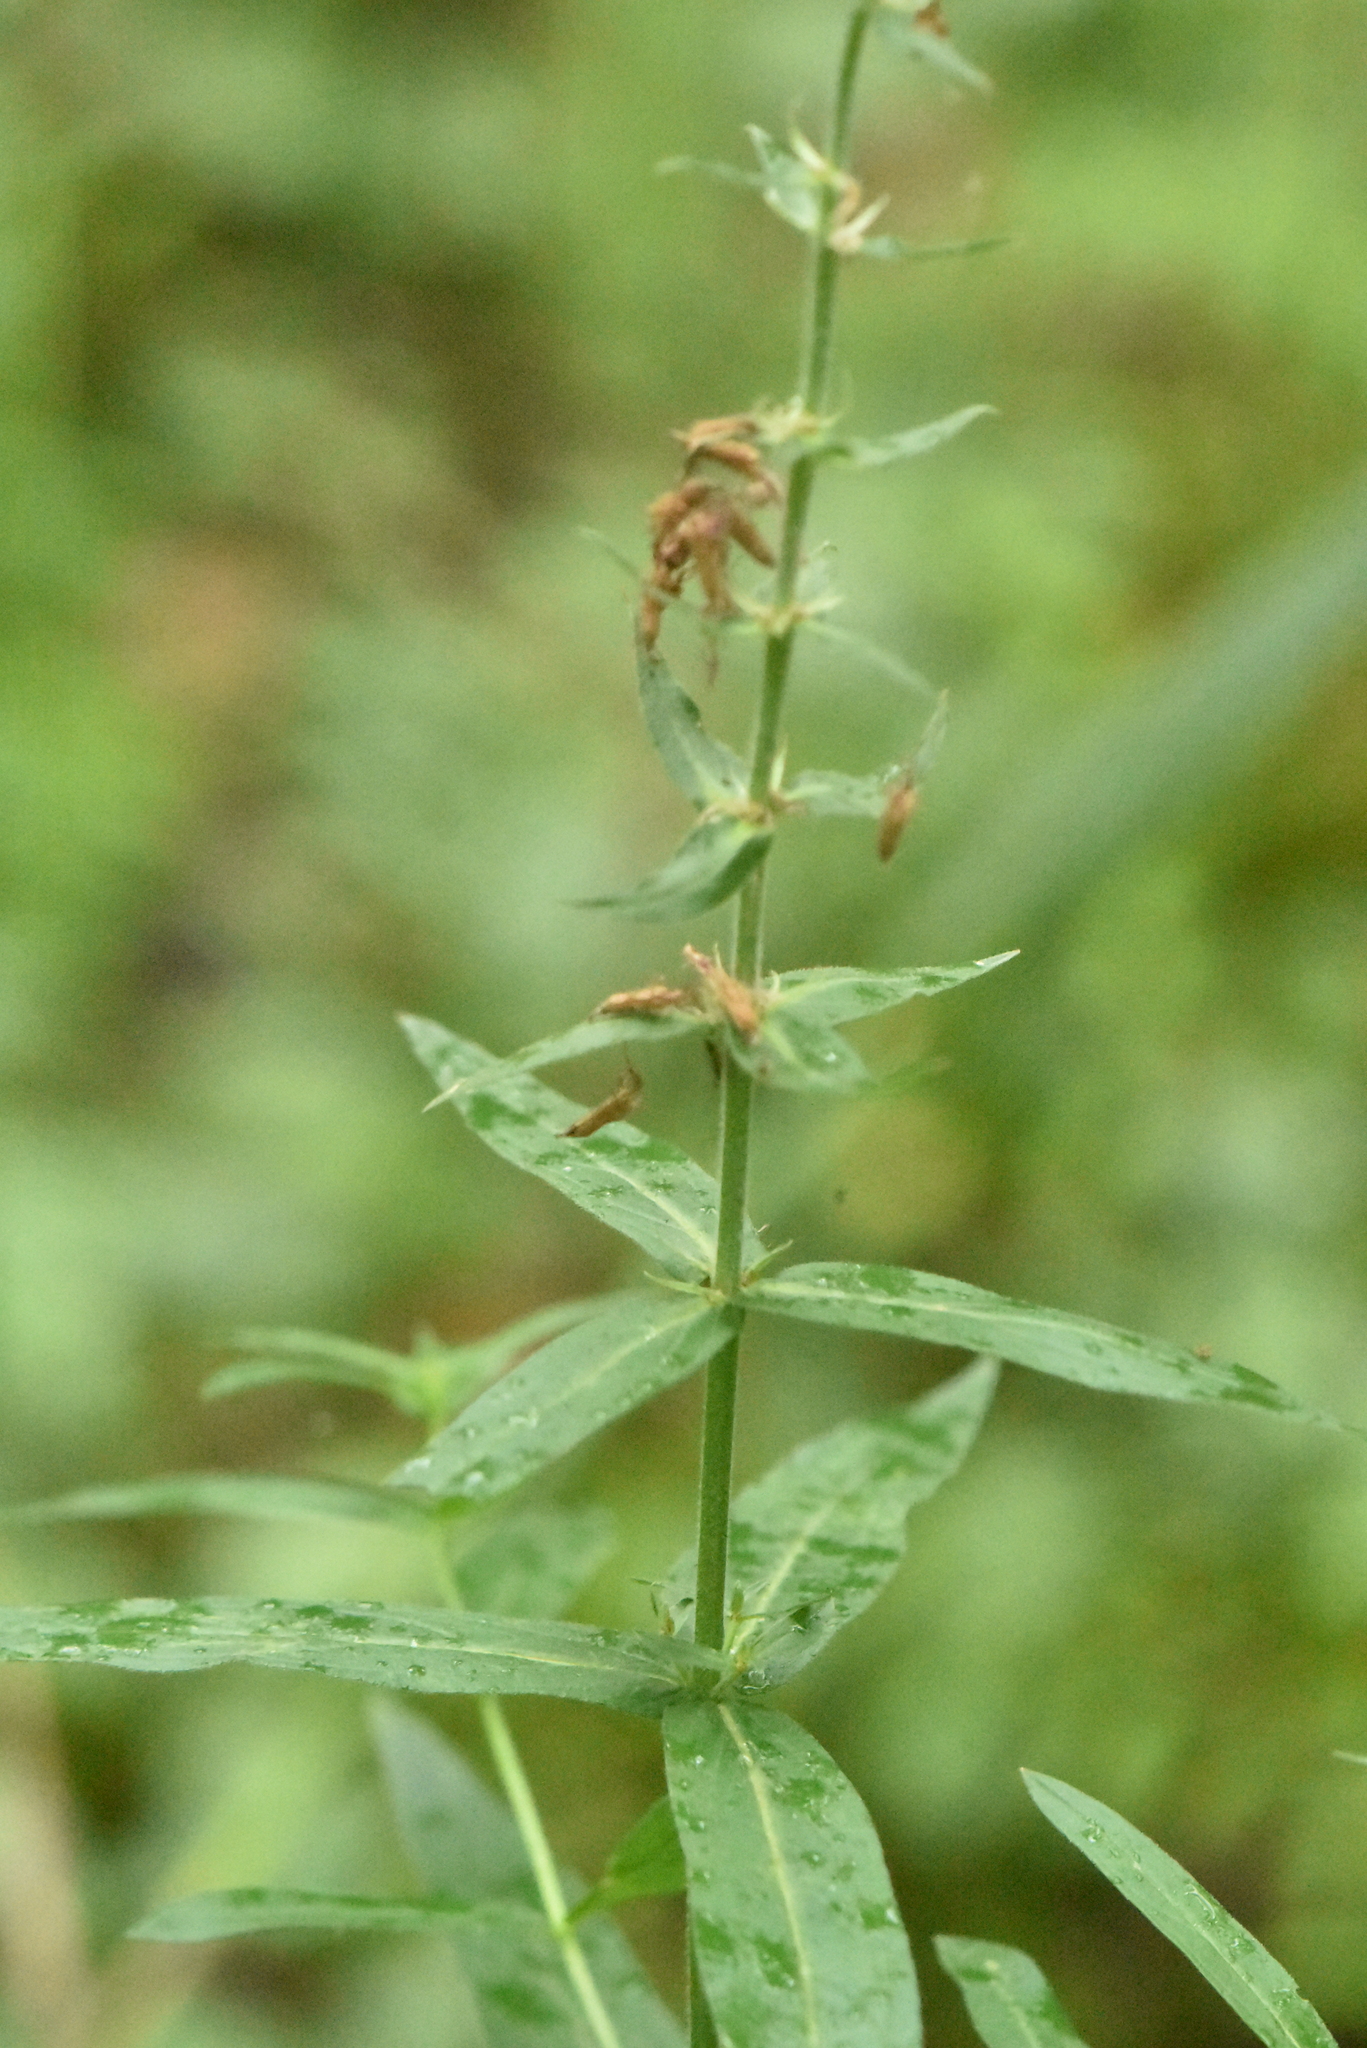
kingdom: Plantae
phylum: Tracheophyta
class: Magnoliopsida
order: Myrtales
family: Lythraceae
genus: Lythrum
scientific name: Lythrum salicaria
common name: Purple loosestrife
